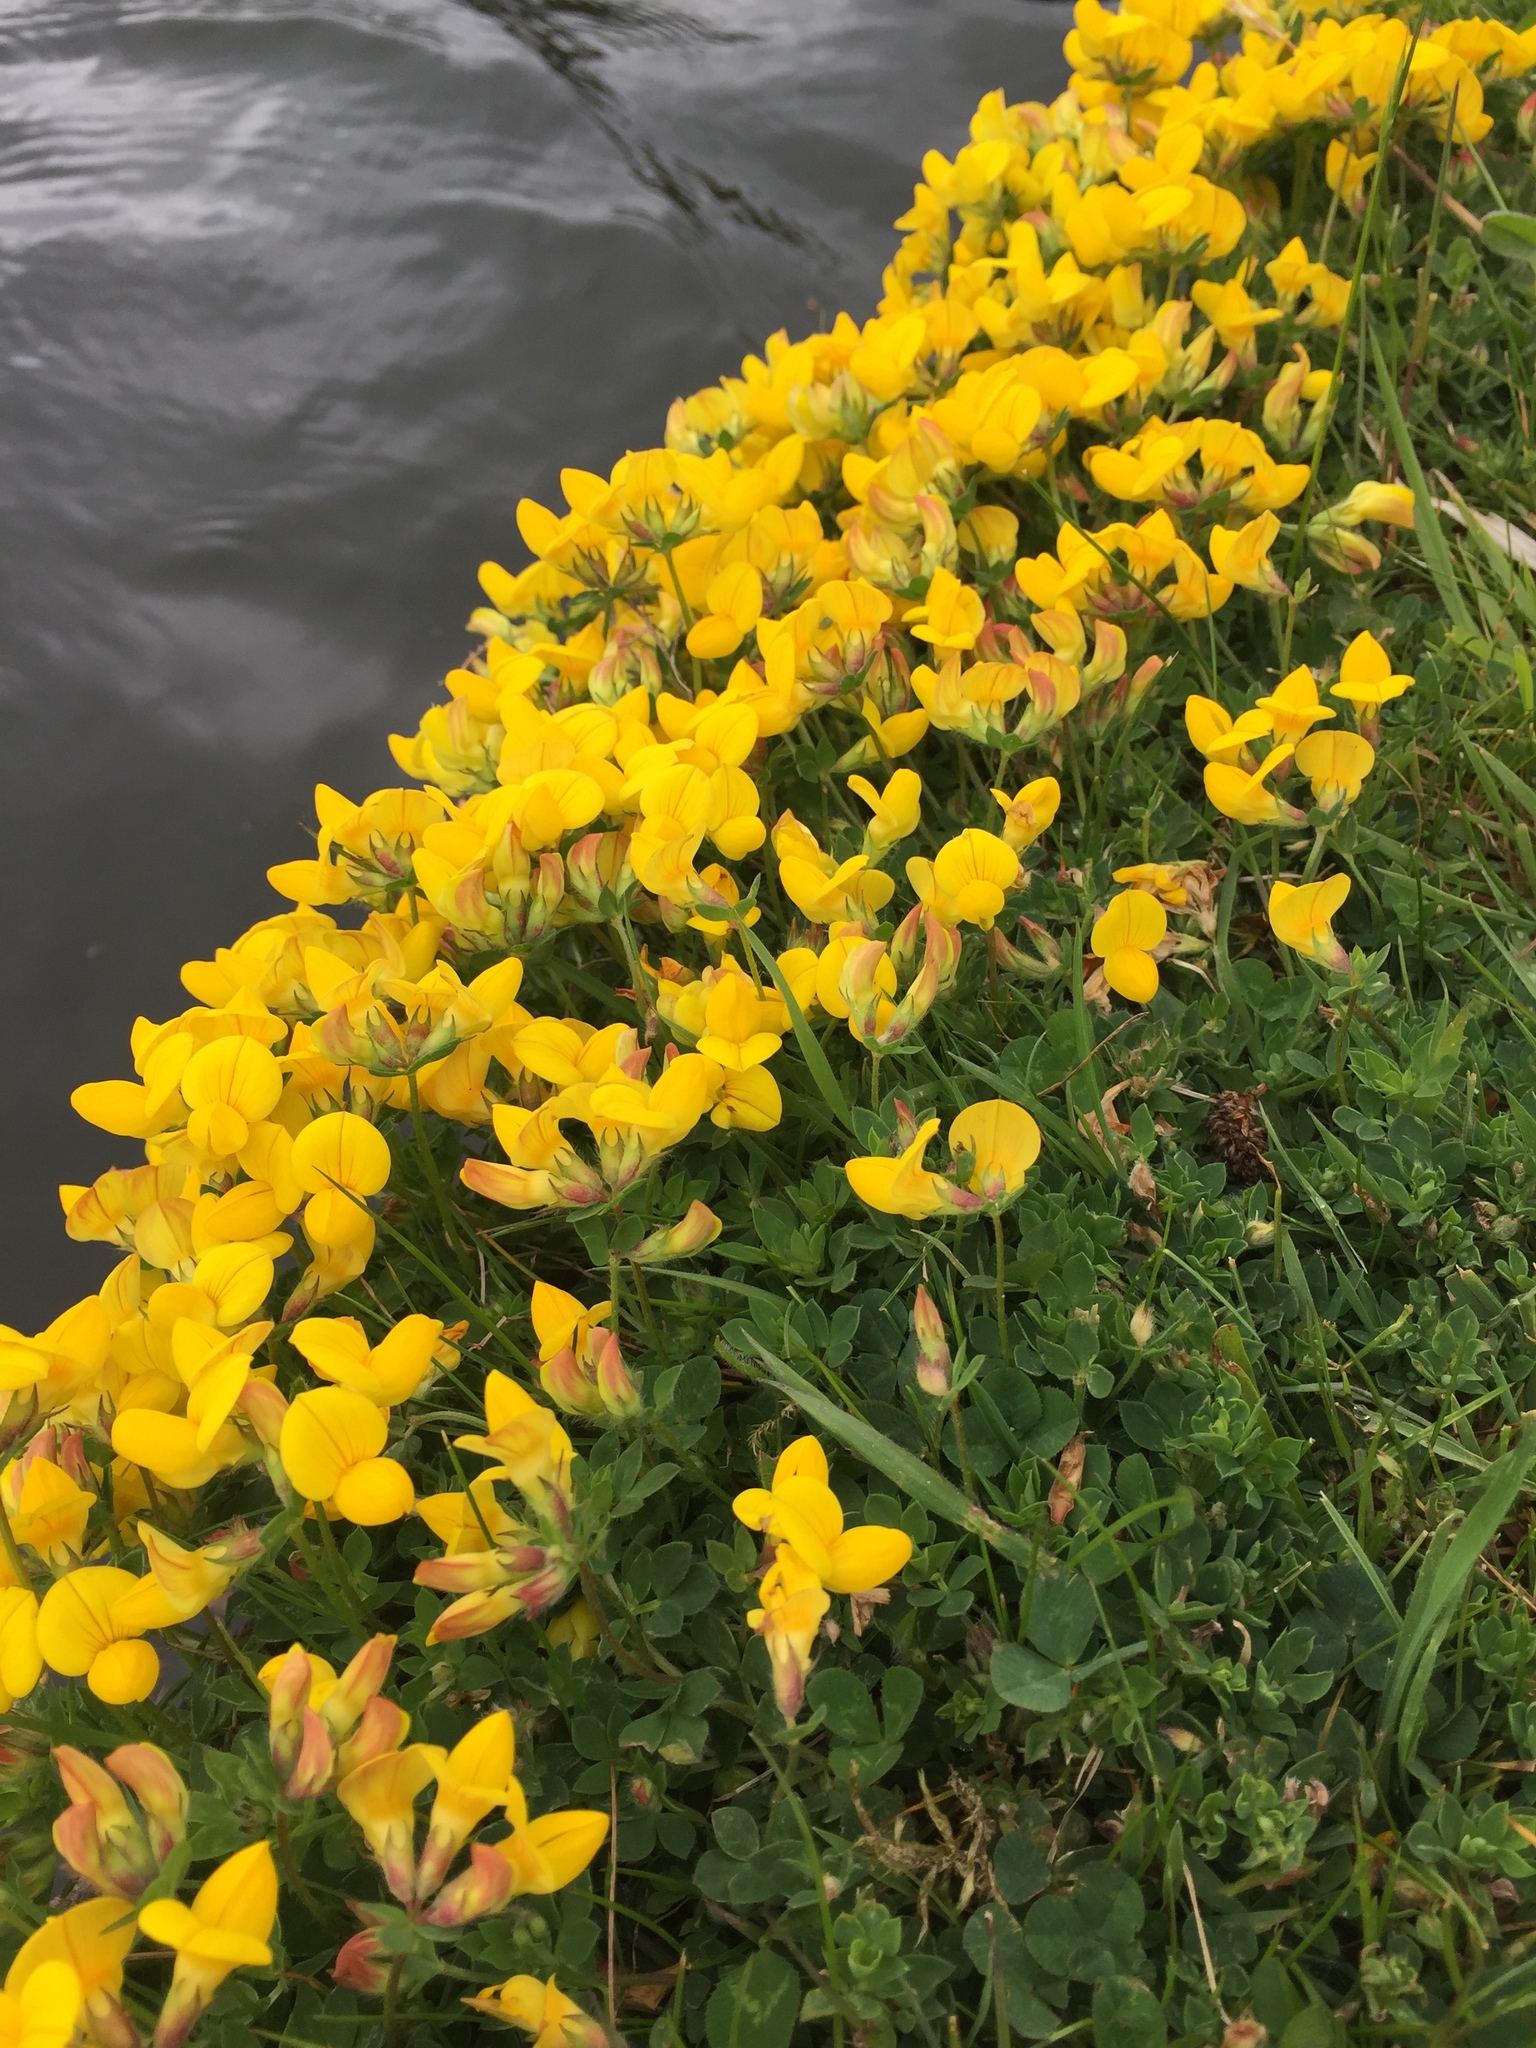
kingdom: Plantae
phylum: Tracheophyta
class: Magnoliopsida
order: Fabales
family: Fabaceae
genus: Lotus
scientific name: Lotus corniculatus
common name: Common bird's-foot-trefoil
